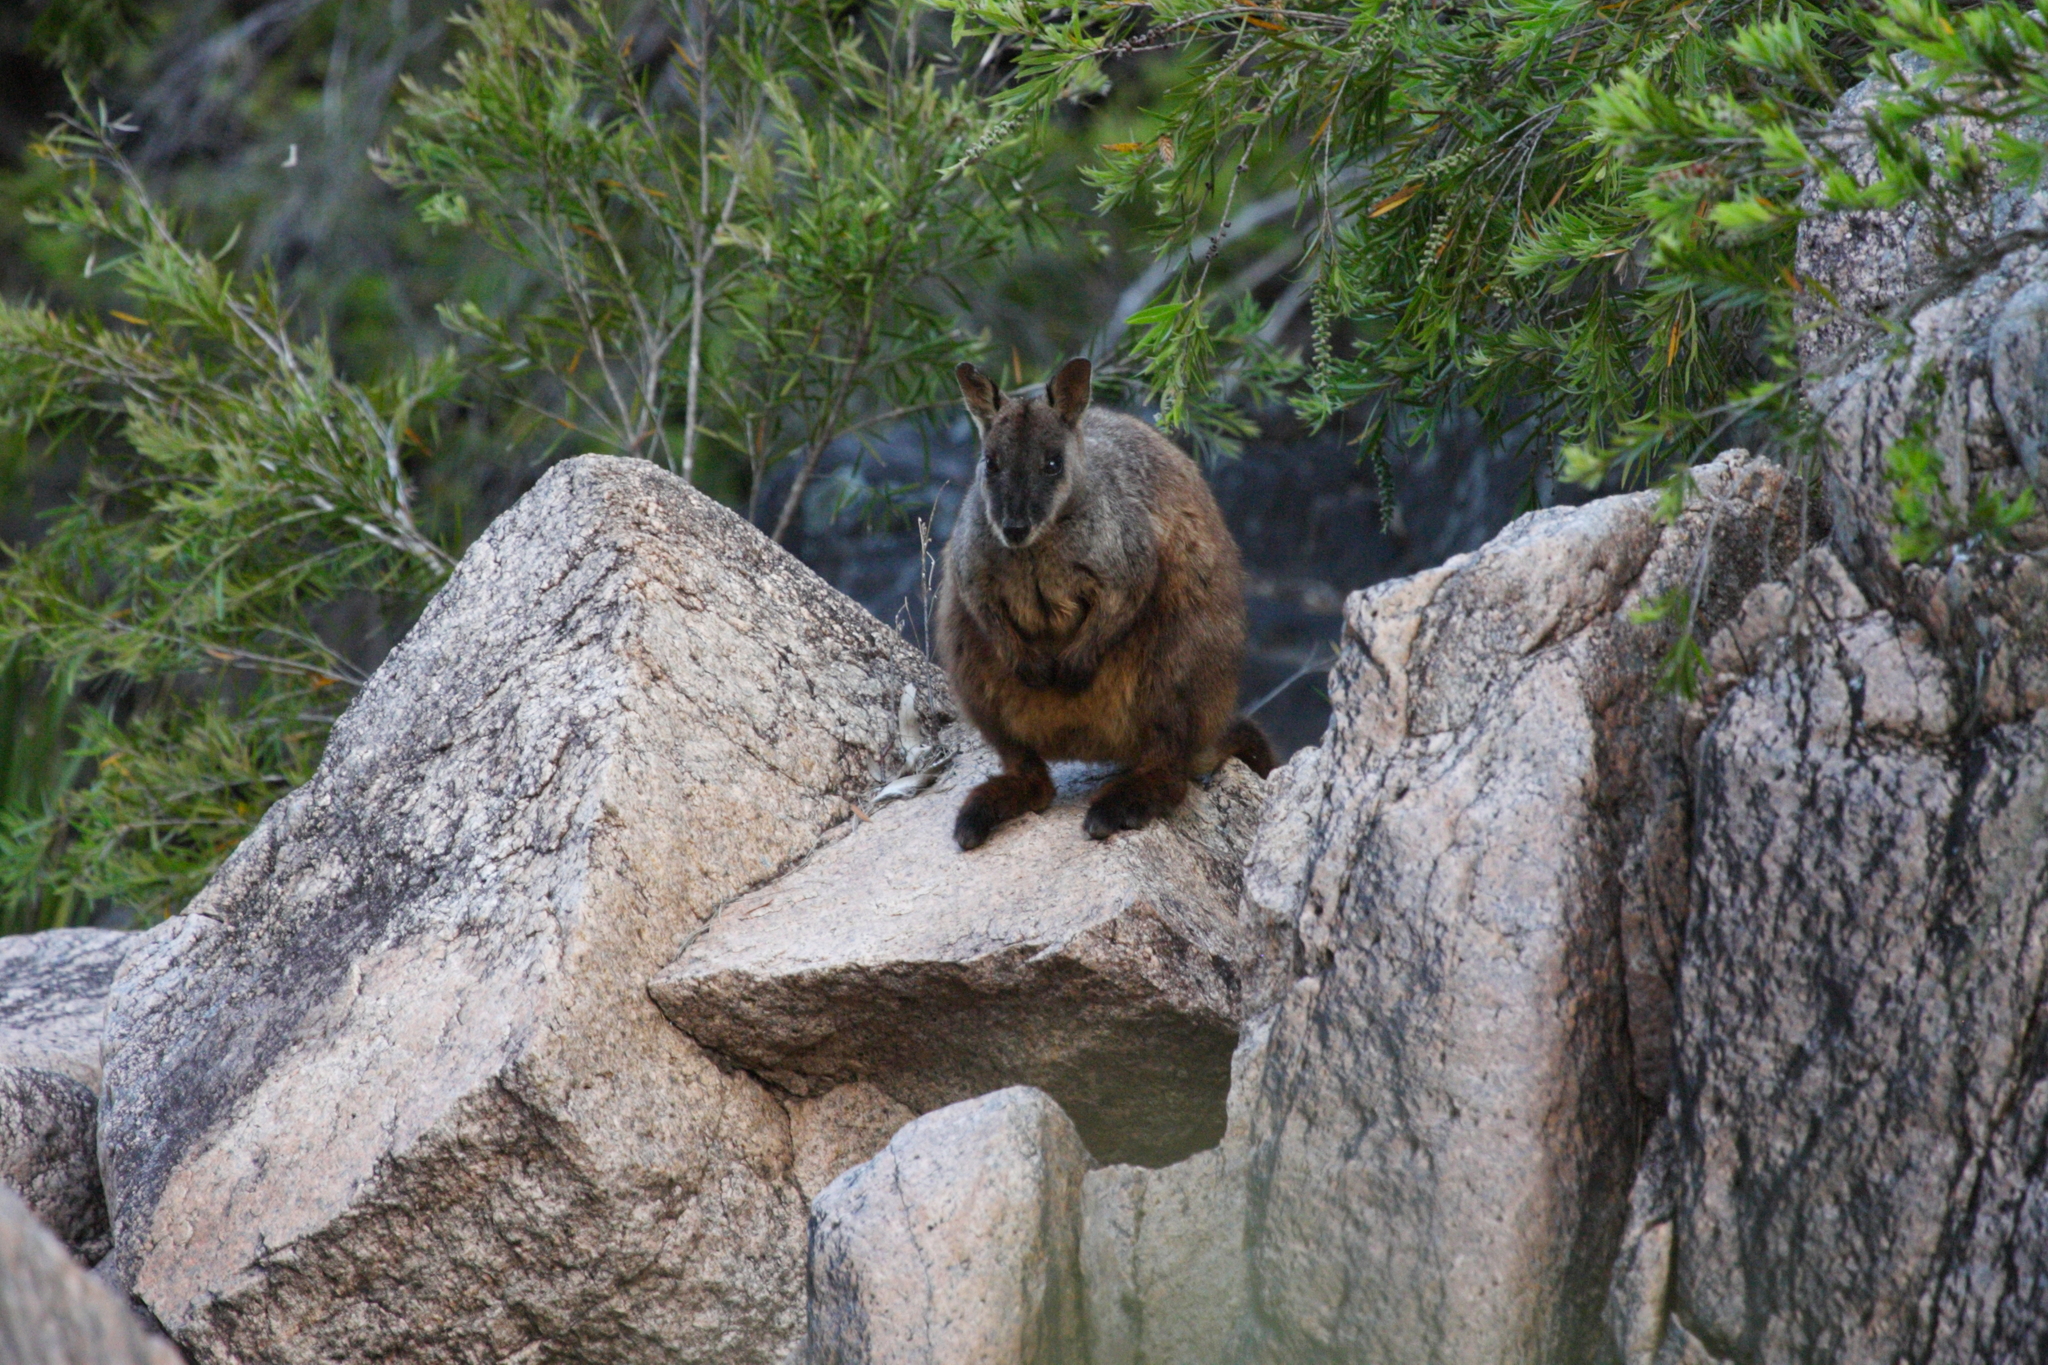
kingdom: Animalia
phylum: Chordata
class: Mammalia
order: Diprotodontia
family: Macropodidae
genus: Petrogale
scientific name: Petrogale penicillata
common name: Brush-tailed rock-wallaby
